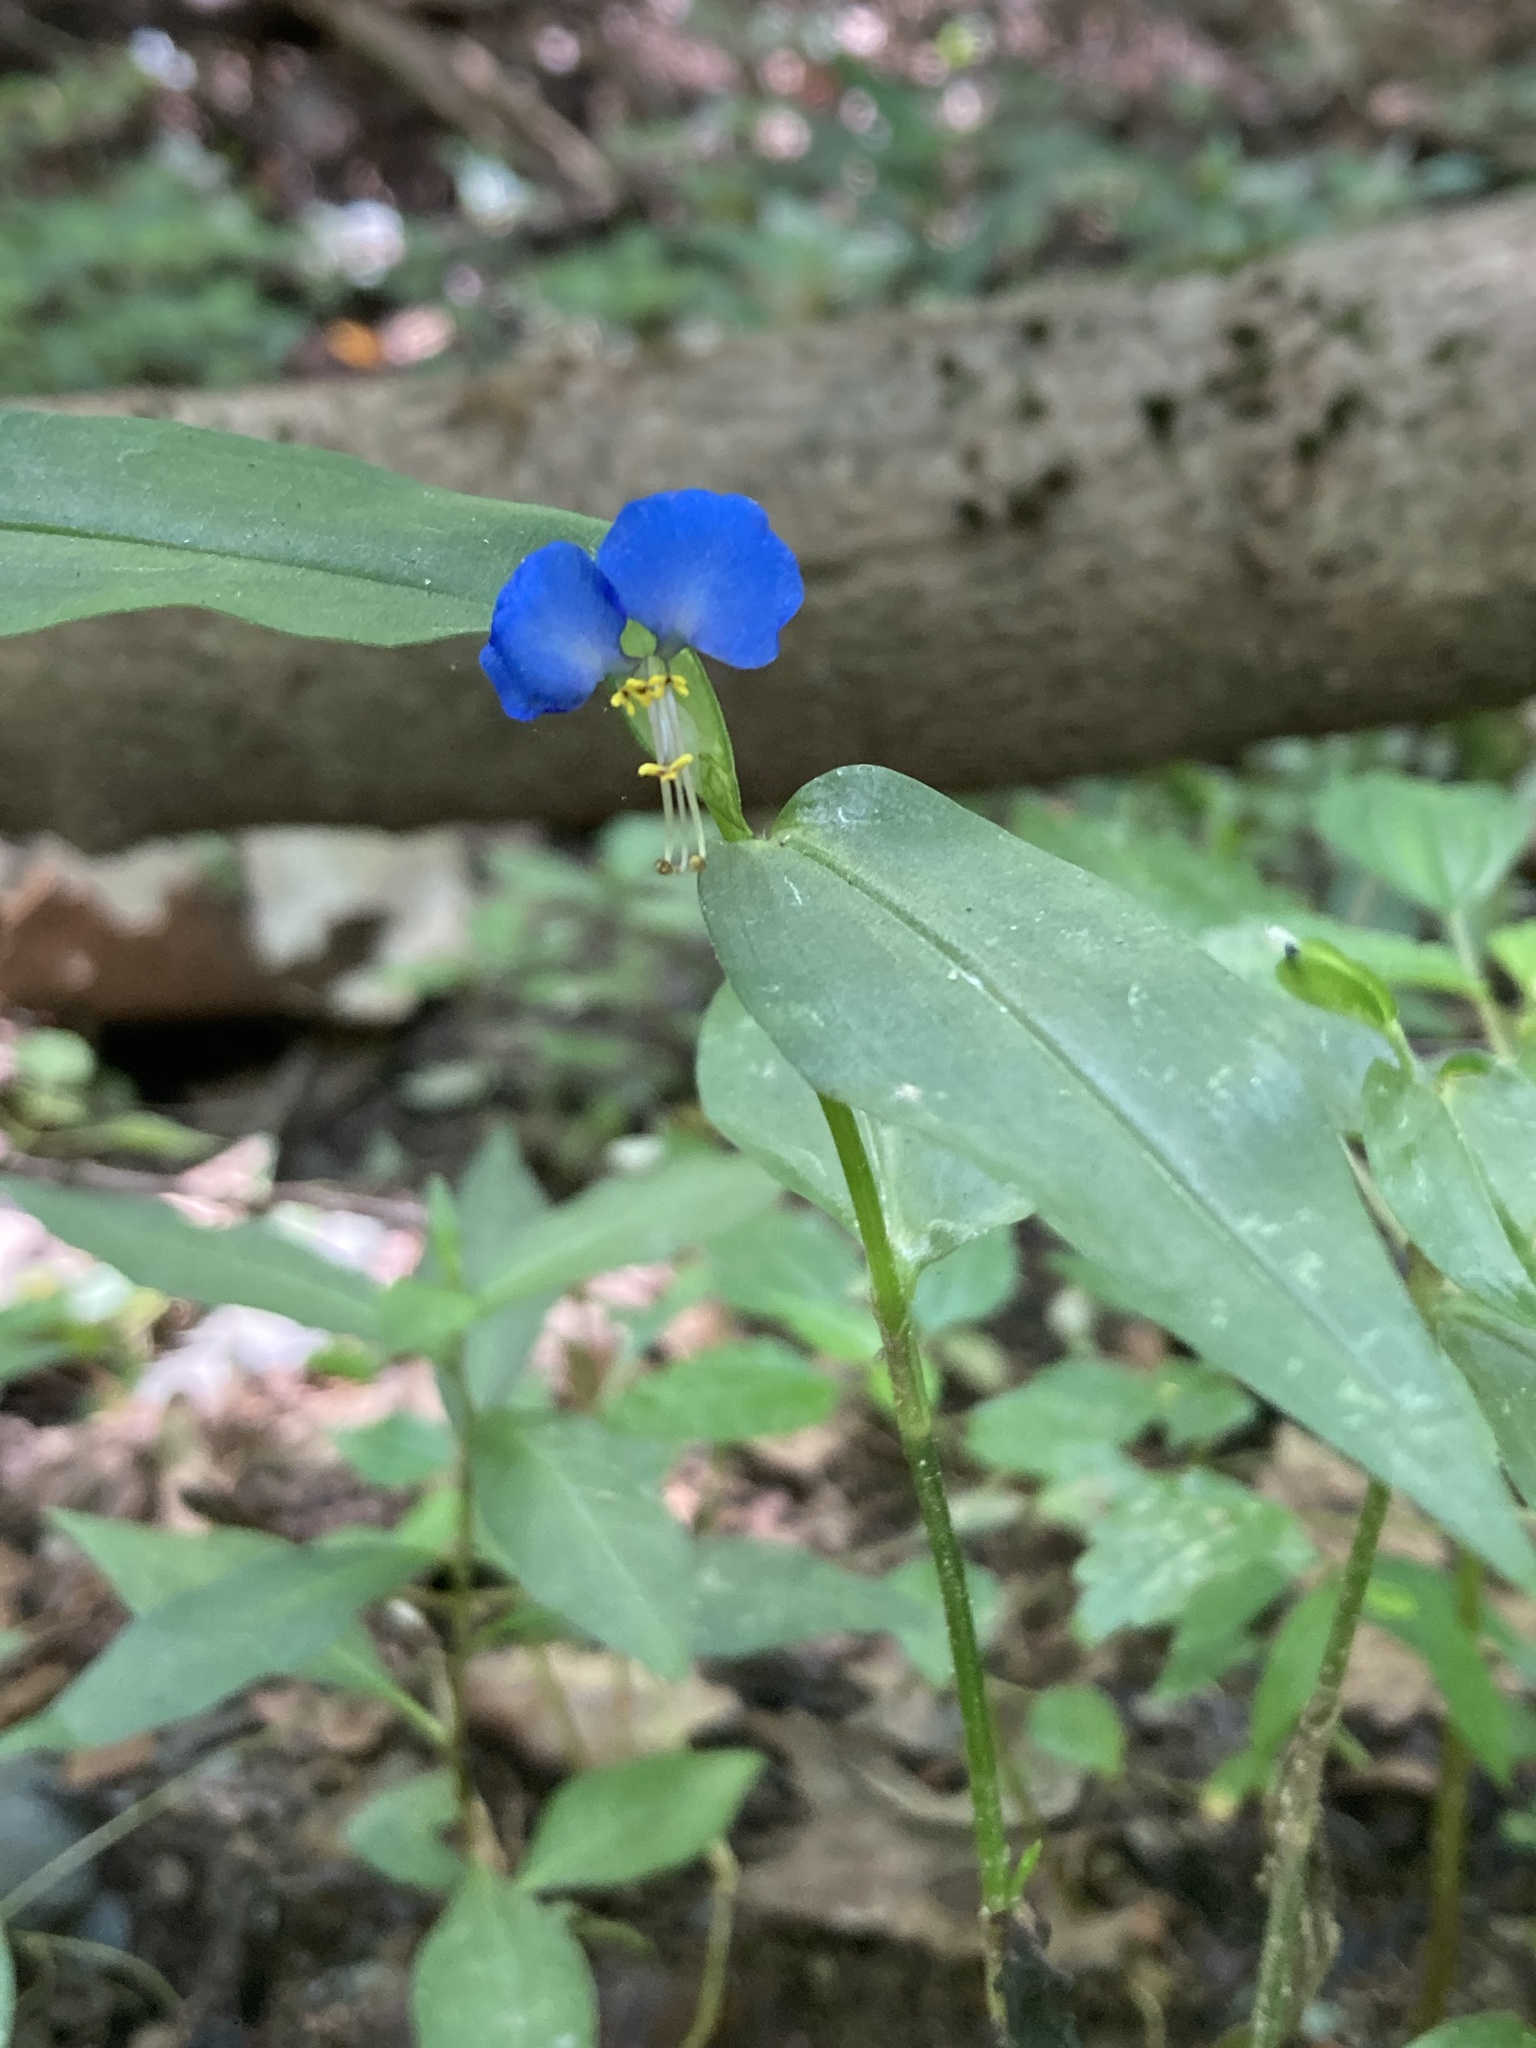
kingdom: Plantae
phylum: Tracheophyta
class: Liliopsida
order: Commelinales
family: Commelinaceae
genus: Commelina
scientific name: Commelina communis
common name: Asiatic dayflower
